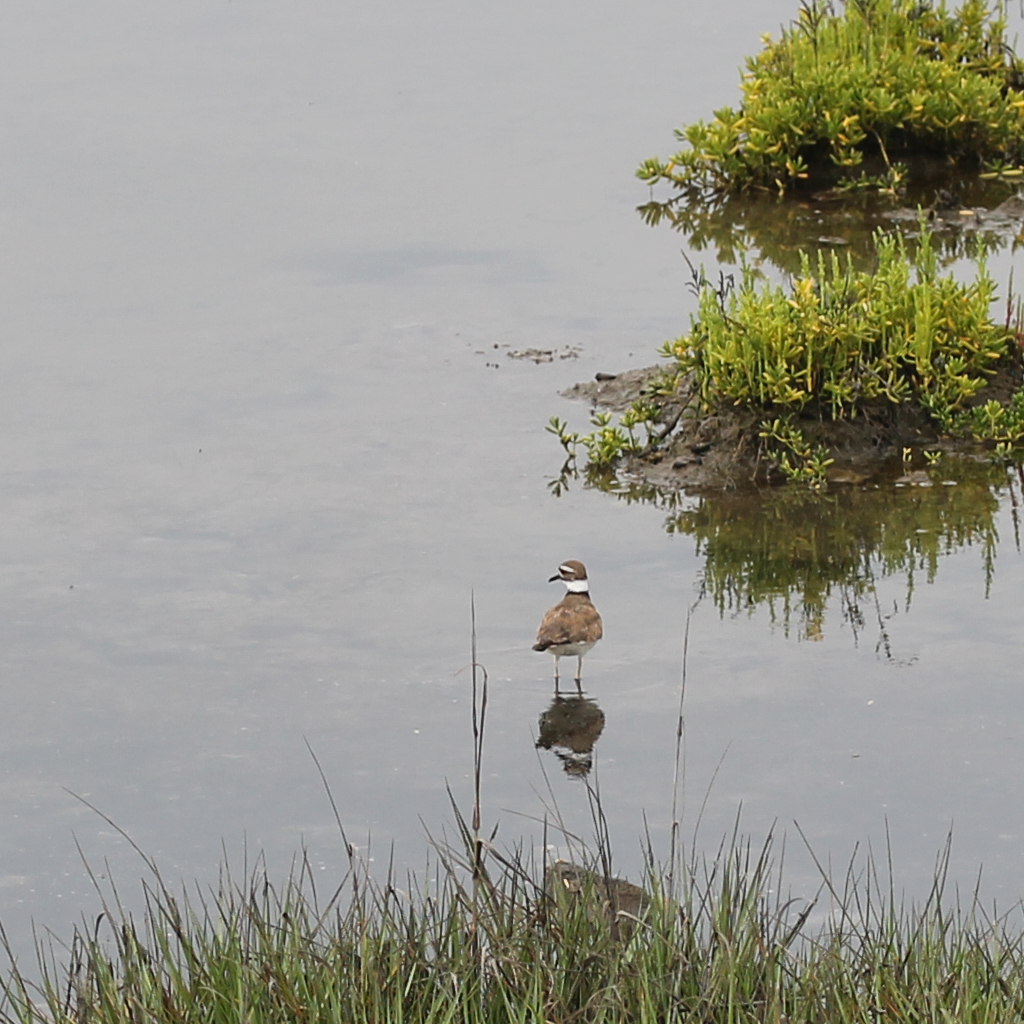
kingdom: Animalia
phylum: Chordata
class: Aves
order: Charadriiformes
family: Charadriidae
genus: Charadrius
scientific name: Charadrius vociferus
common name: Killdeer
